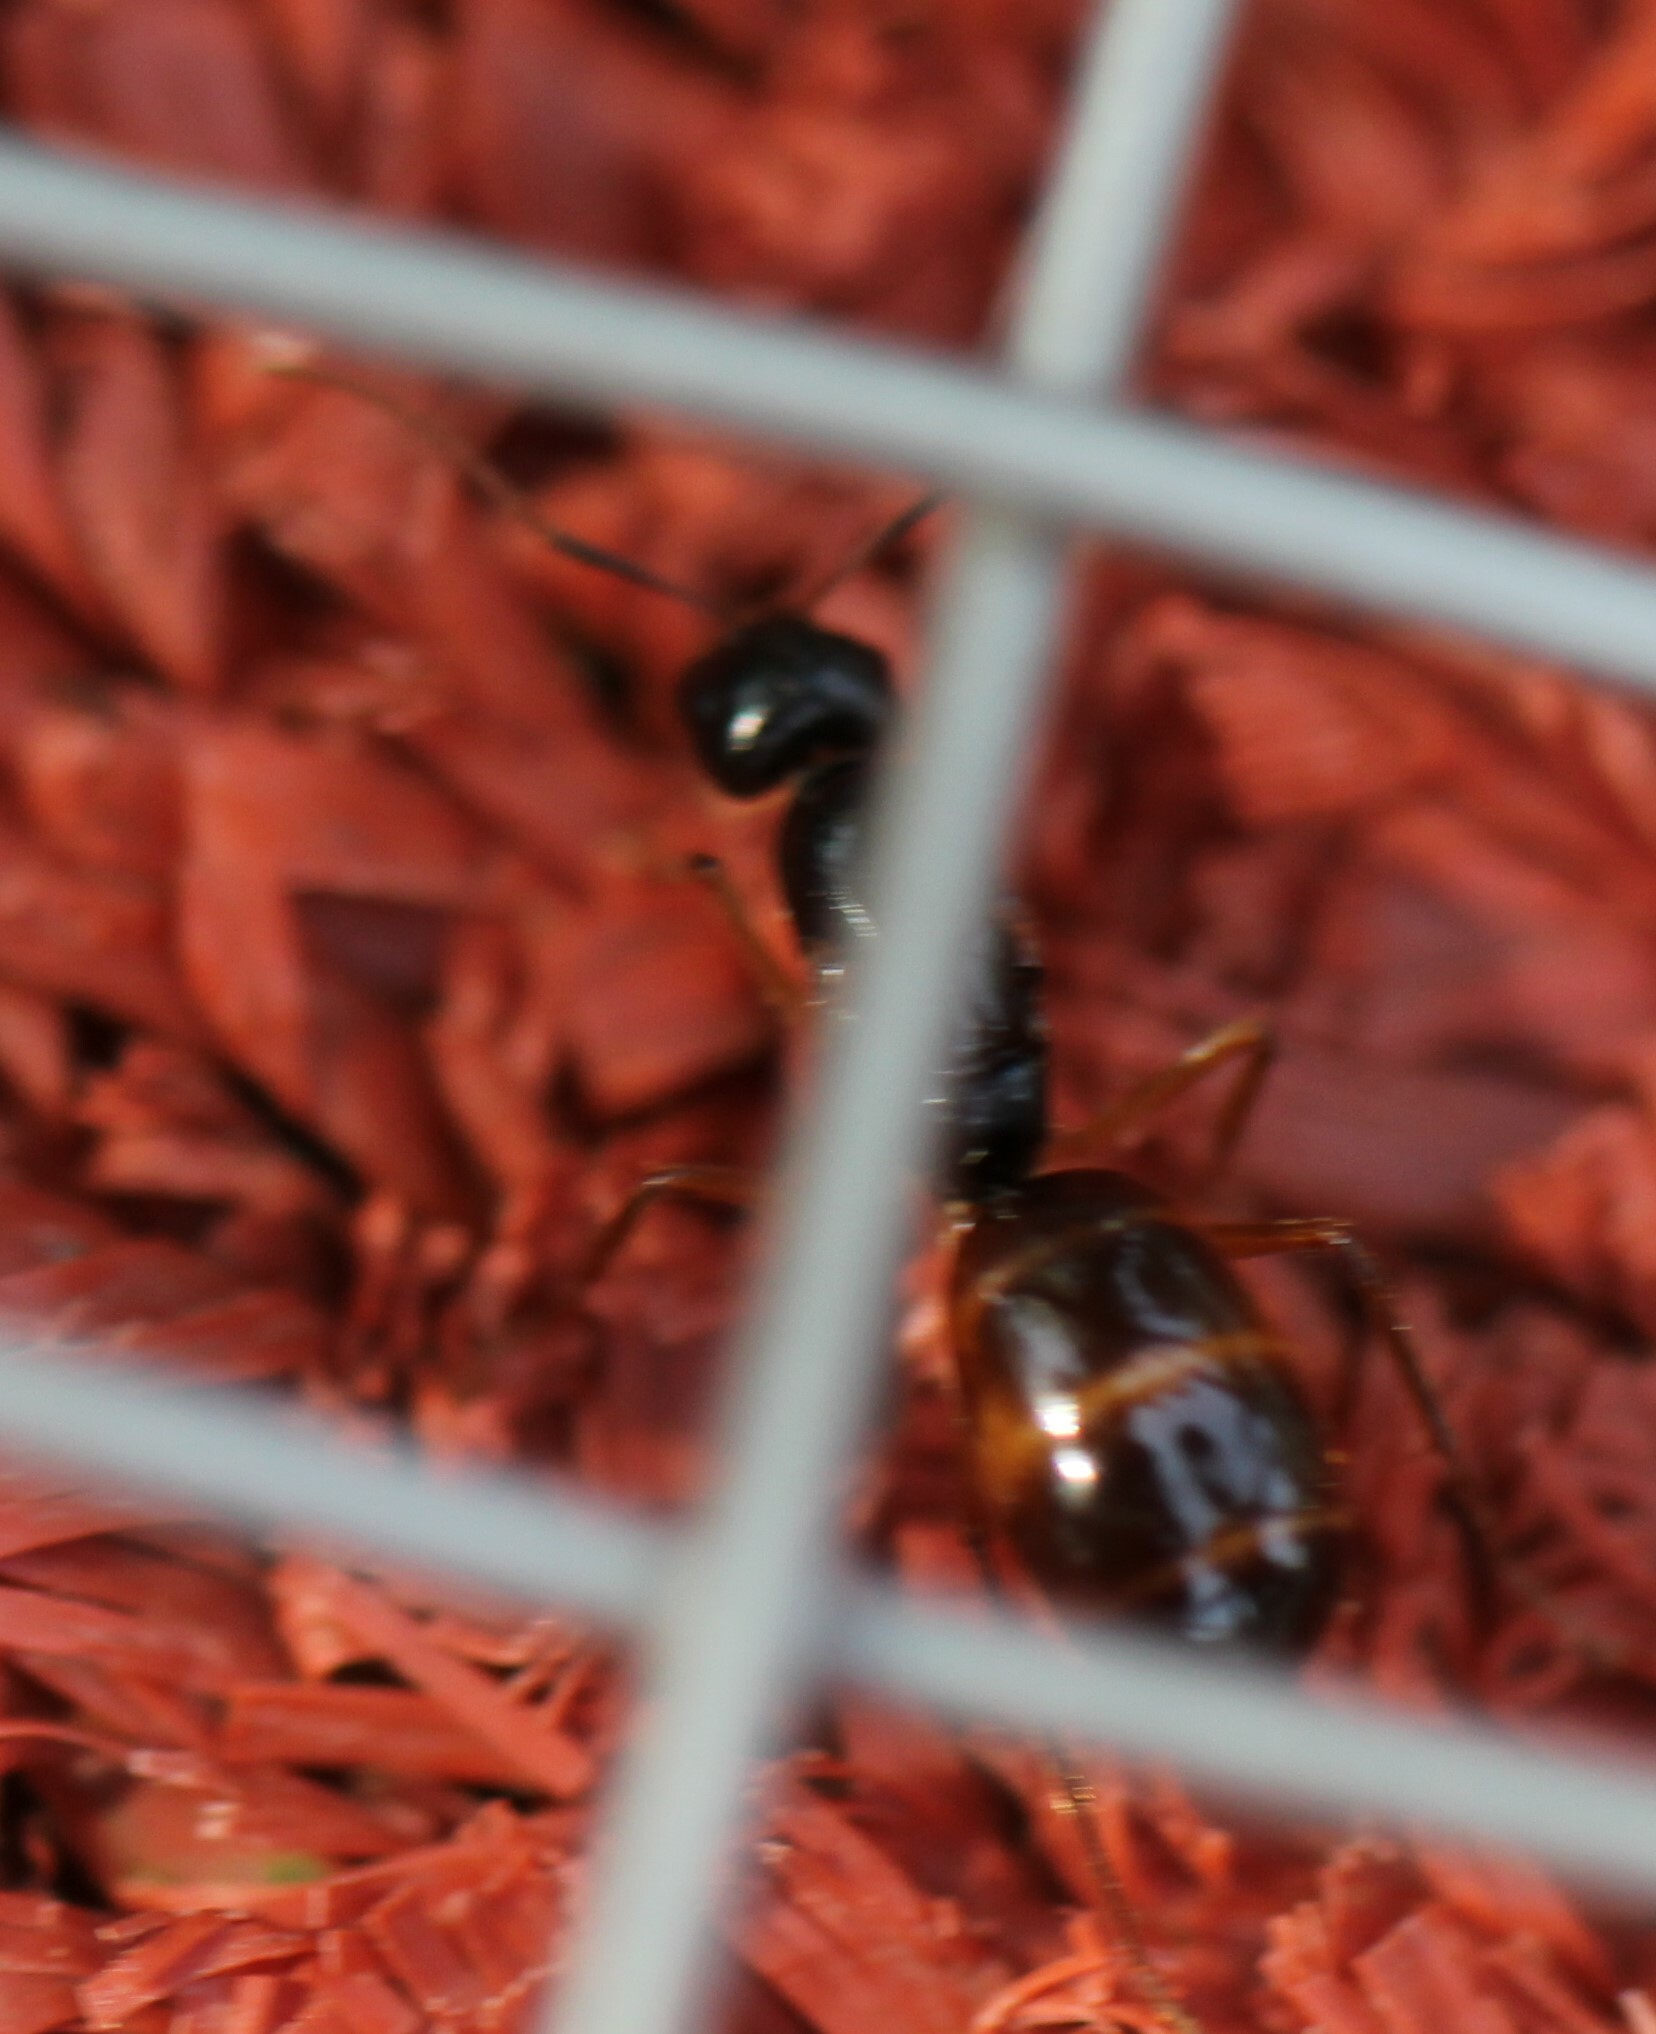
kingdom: Animalia
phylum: Arthropoda
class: Insecta
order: Hymenoptera
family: Formicidae
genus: Camponotus
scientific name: Camponotus buddhae
